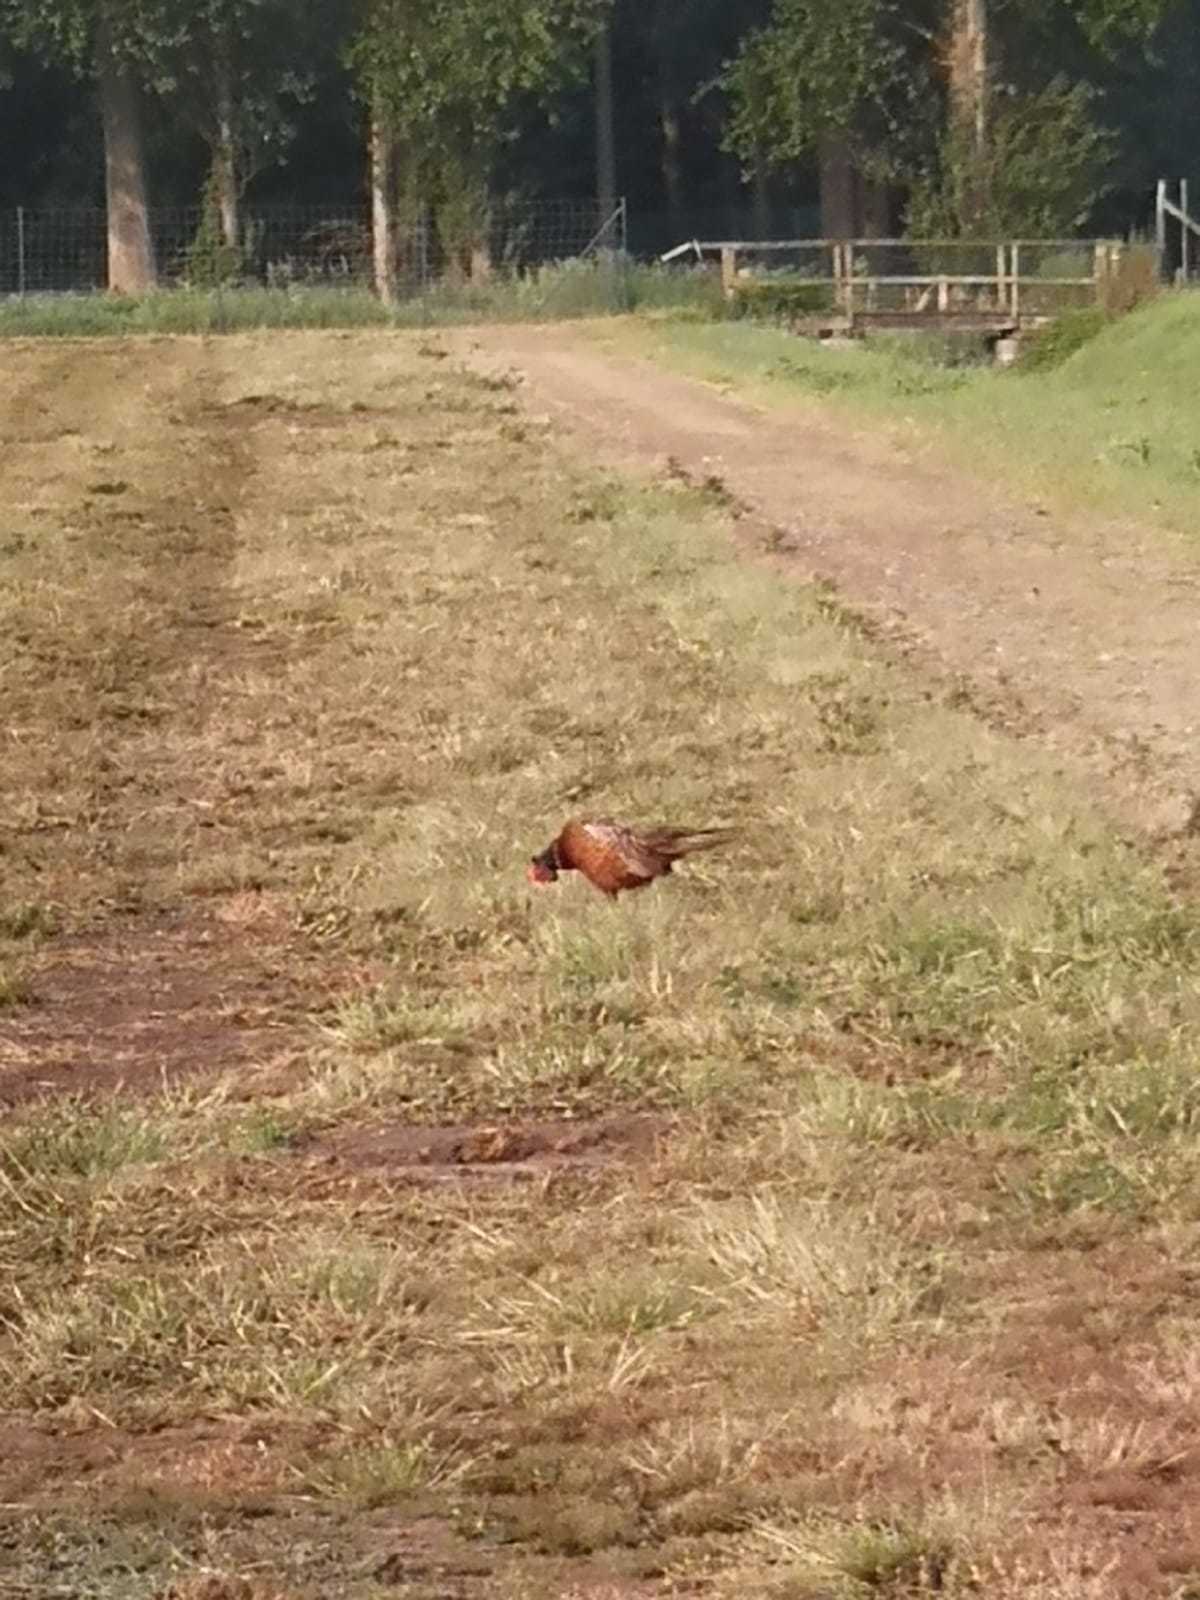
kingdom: Animalia
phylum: Chordata
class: Aves
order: Galliformes
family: Phasianidae
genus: Phasianus
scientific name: Phasianus colchicus
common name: Common pheasant
